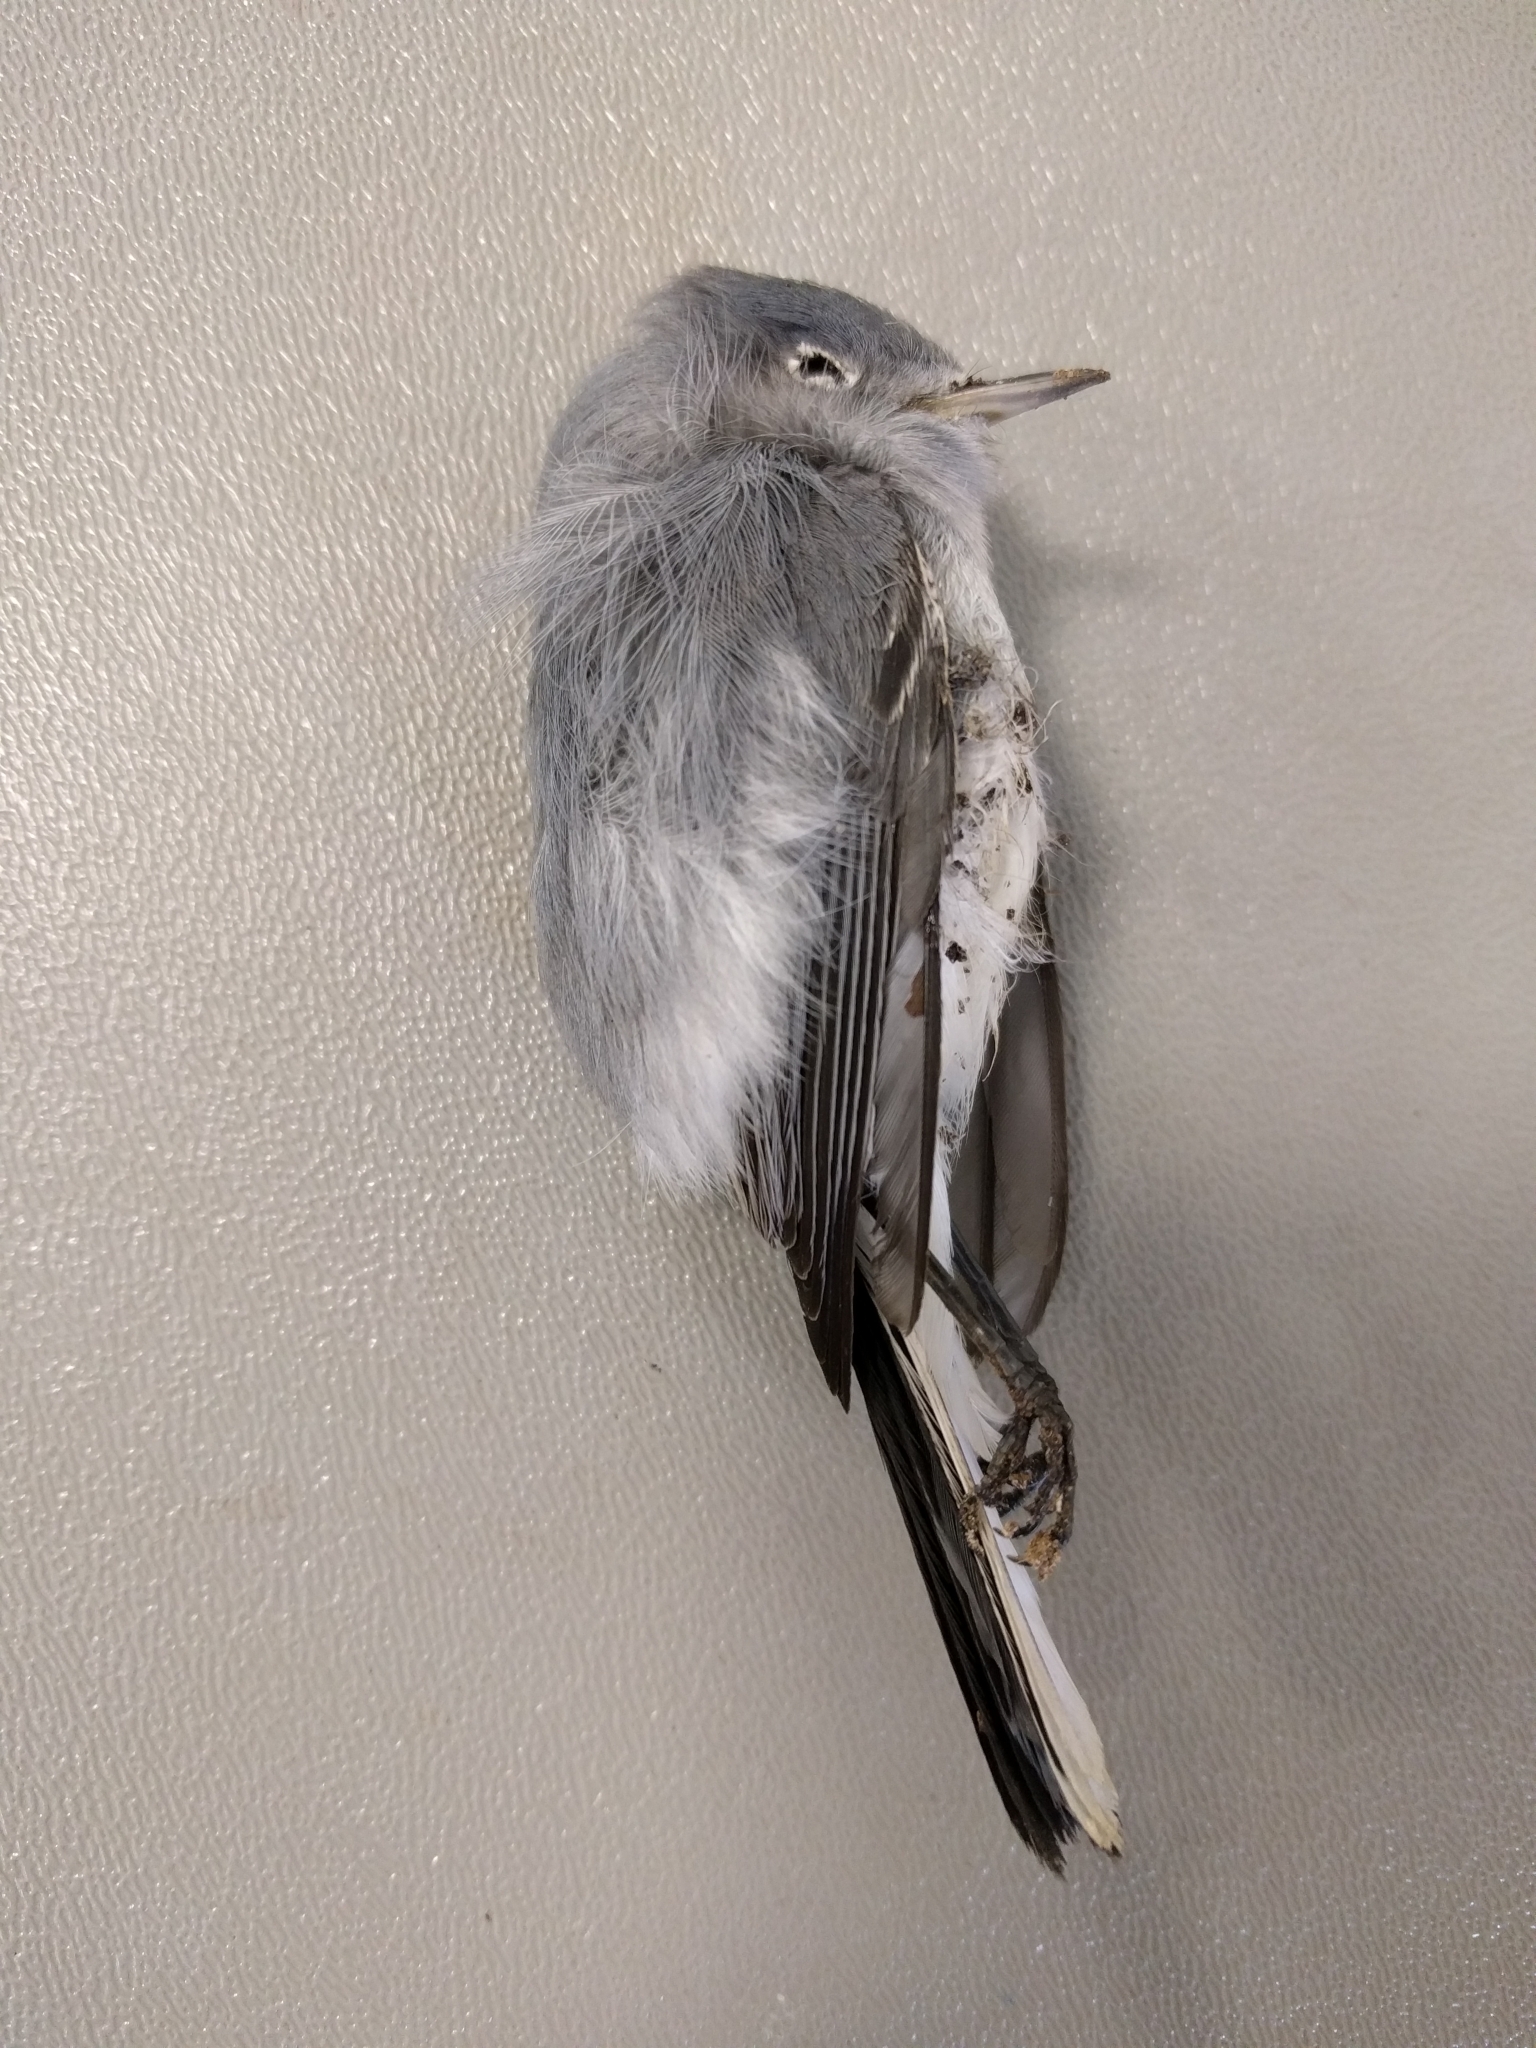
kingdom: Animalia
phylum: Chordata
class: Aves
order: Passeriformes
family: Polioptilidae
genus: Polioptila
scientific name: Polioptila caerulea
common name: Blue-gray gnatcatcher
